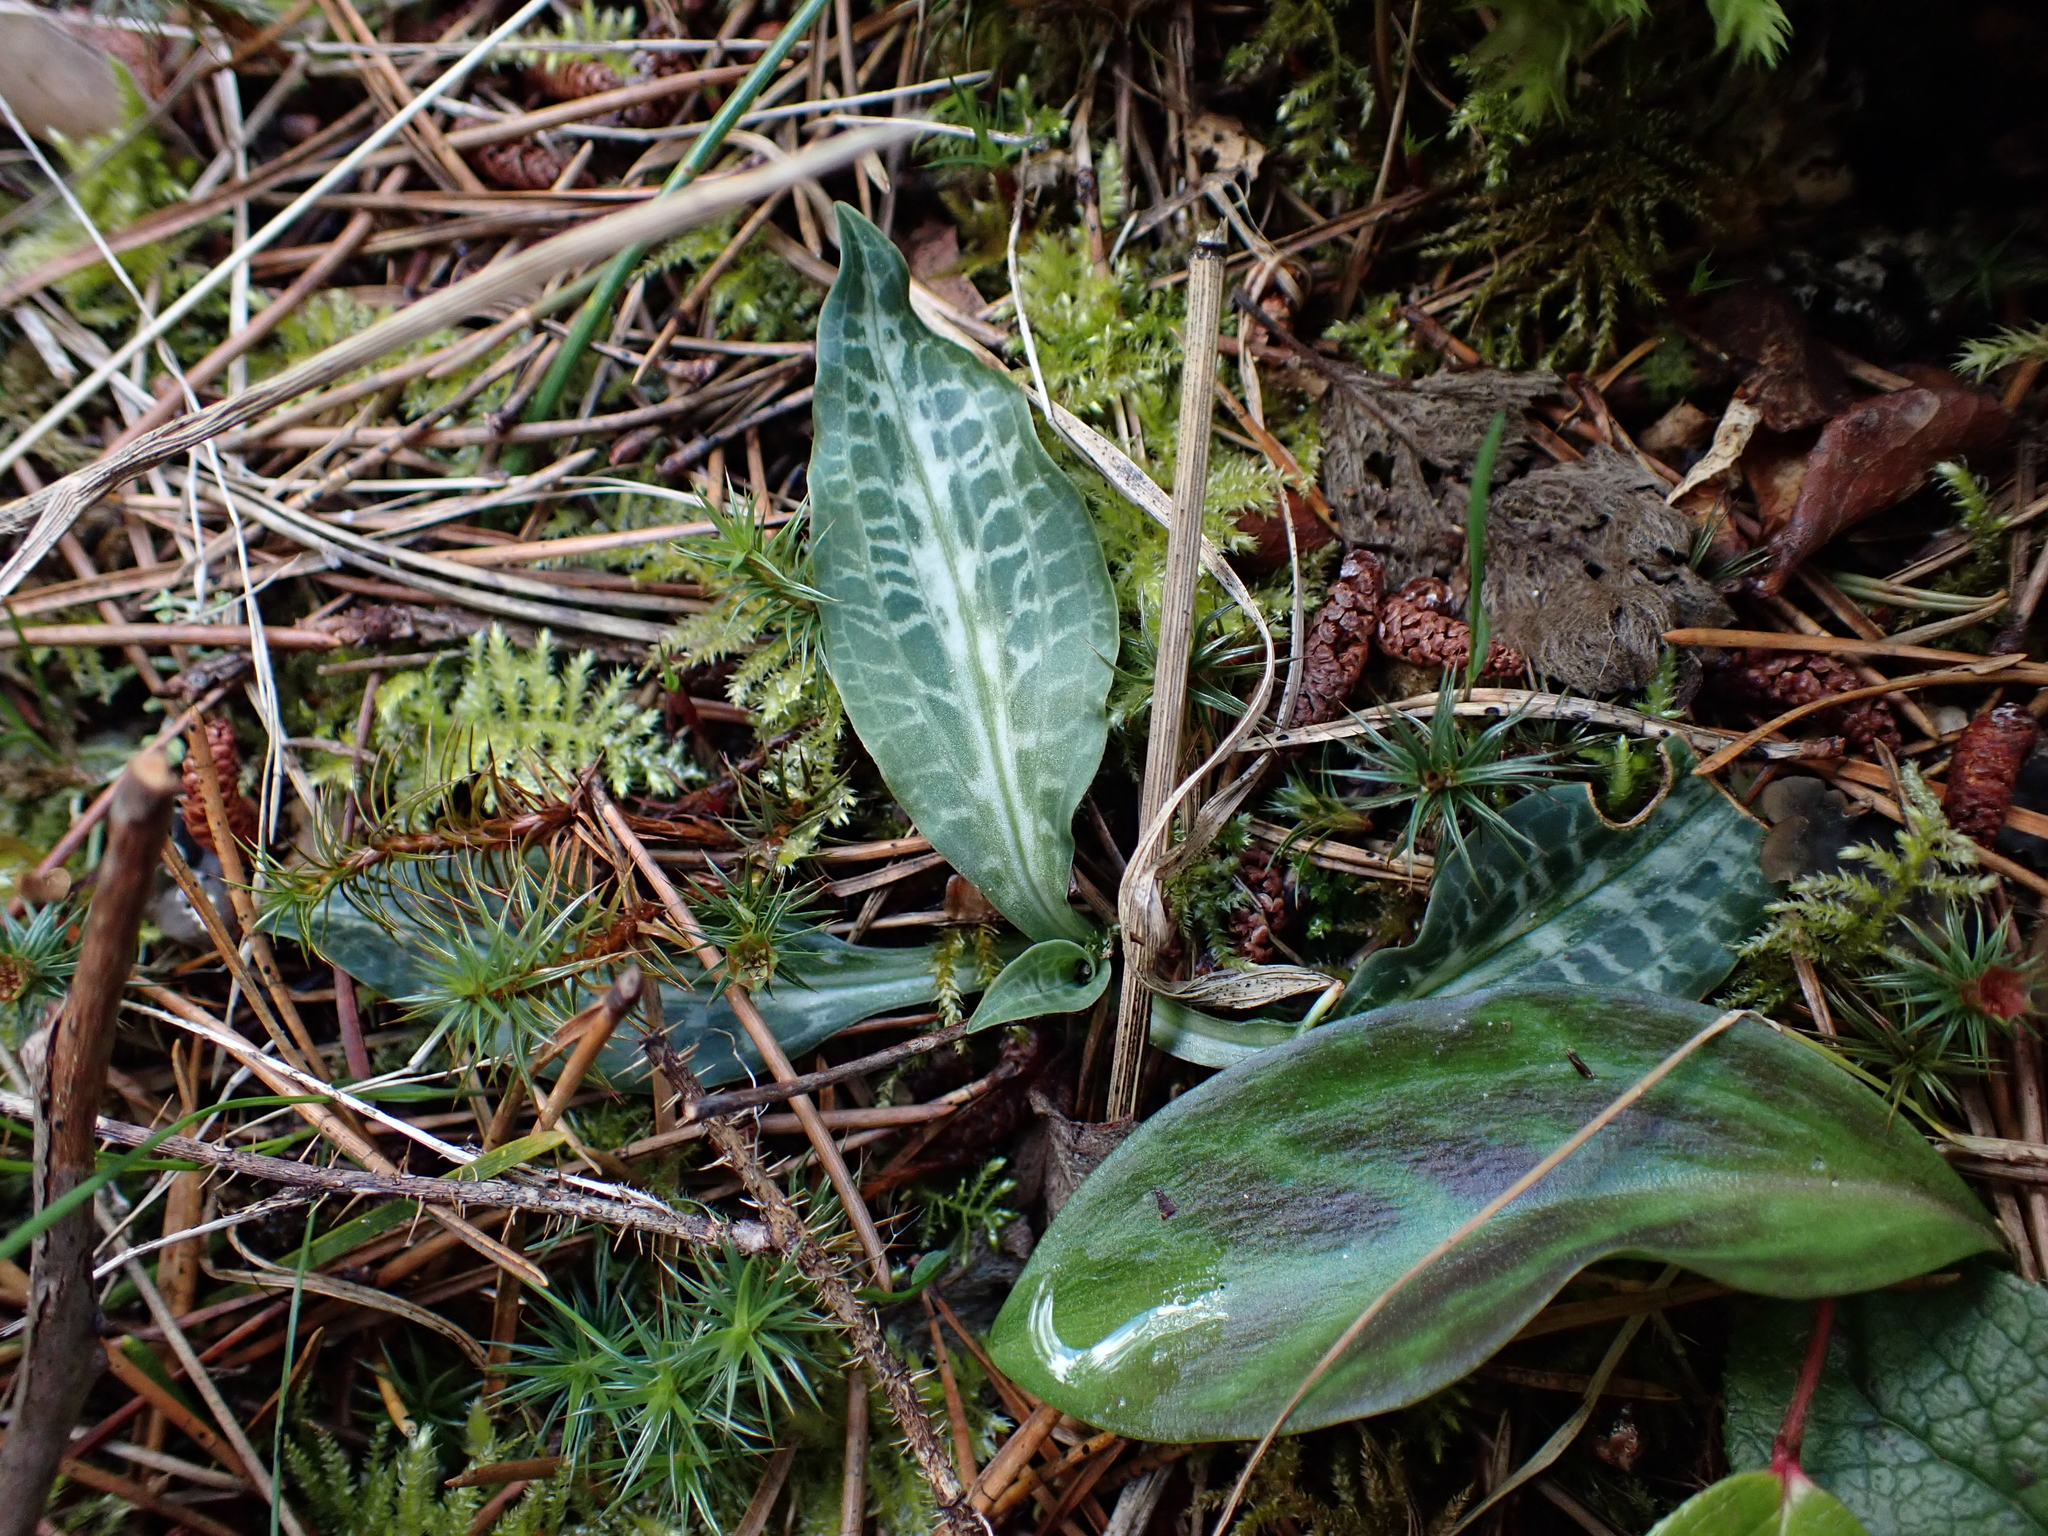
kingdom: Plantae
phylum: Tracheophyta
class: Liliopsida
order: Asparagales
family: Orchidaceae
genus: Goodyera
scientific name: Goodyera oblongifolia
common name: Giant rattlesnake-plantain
